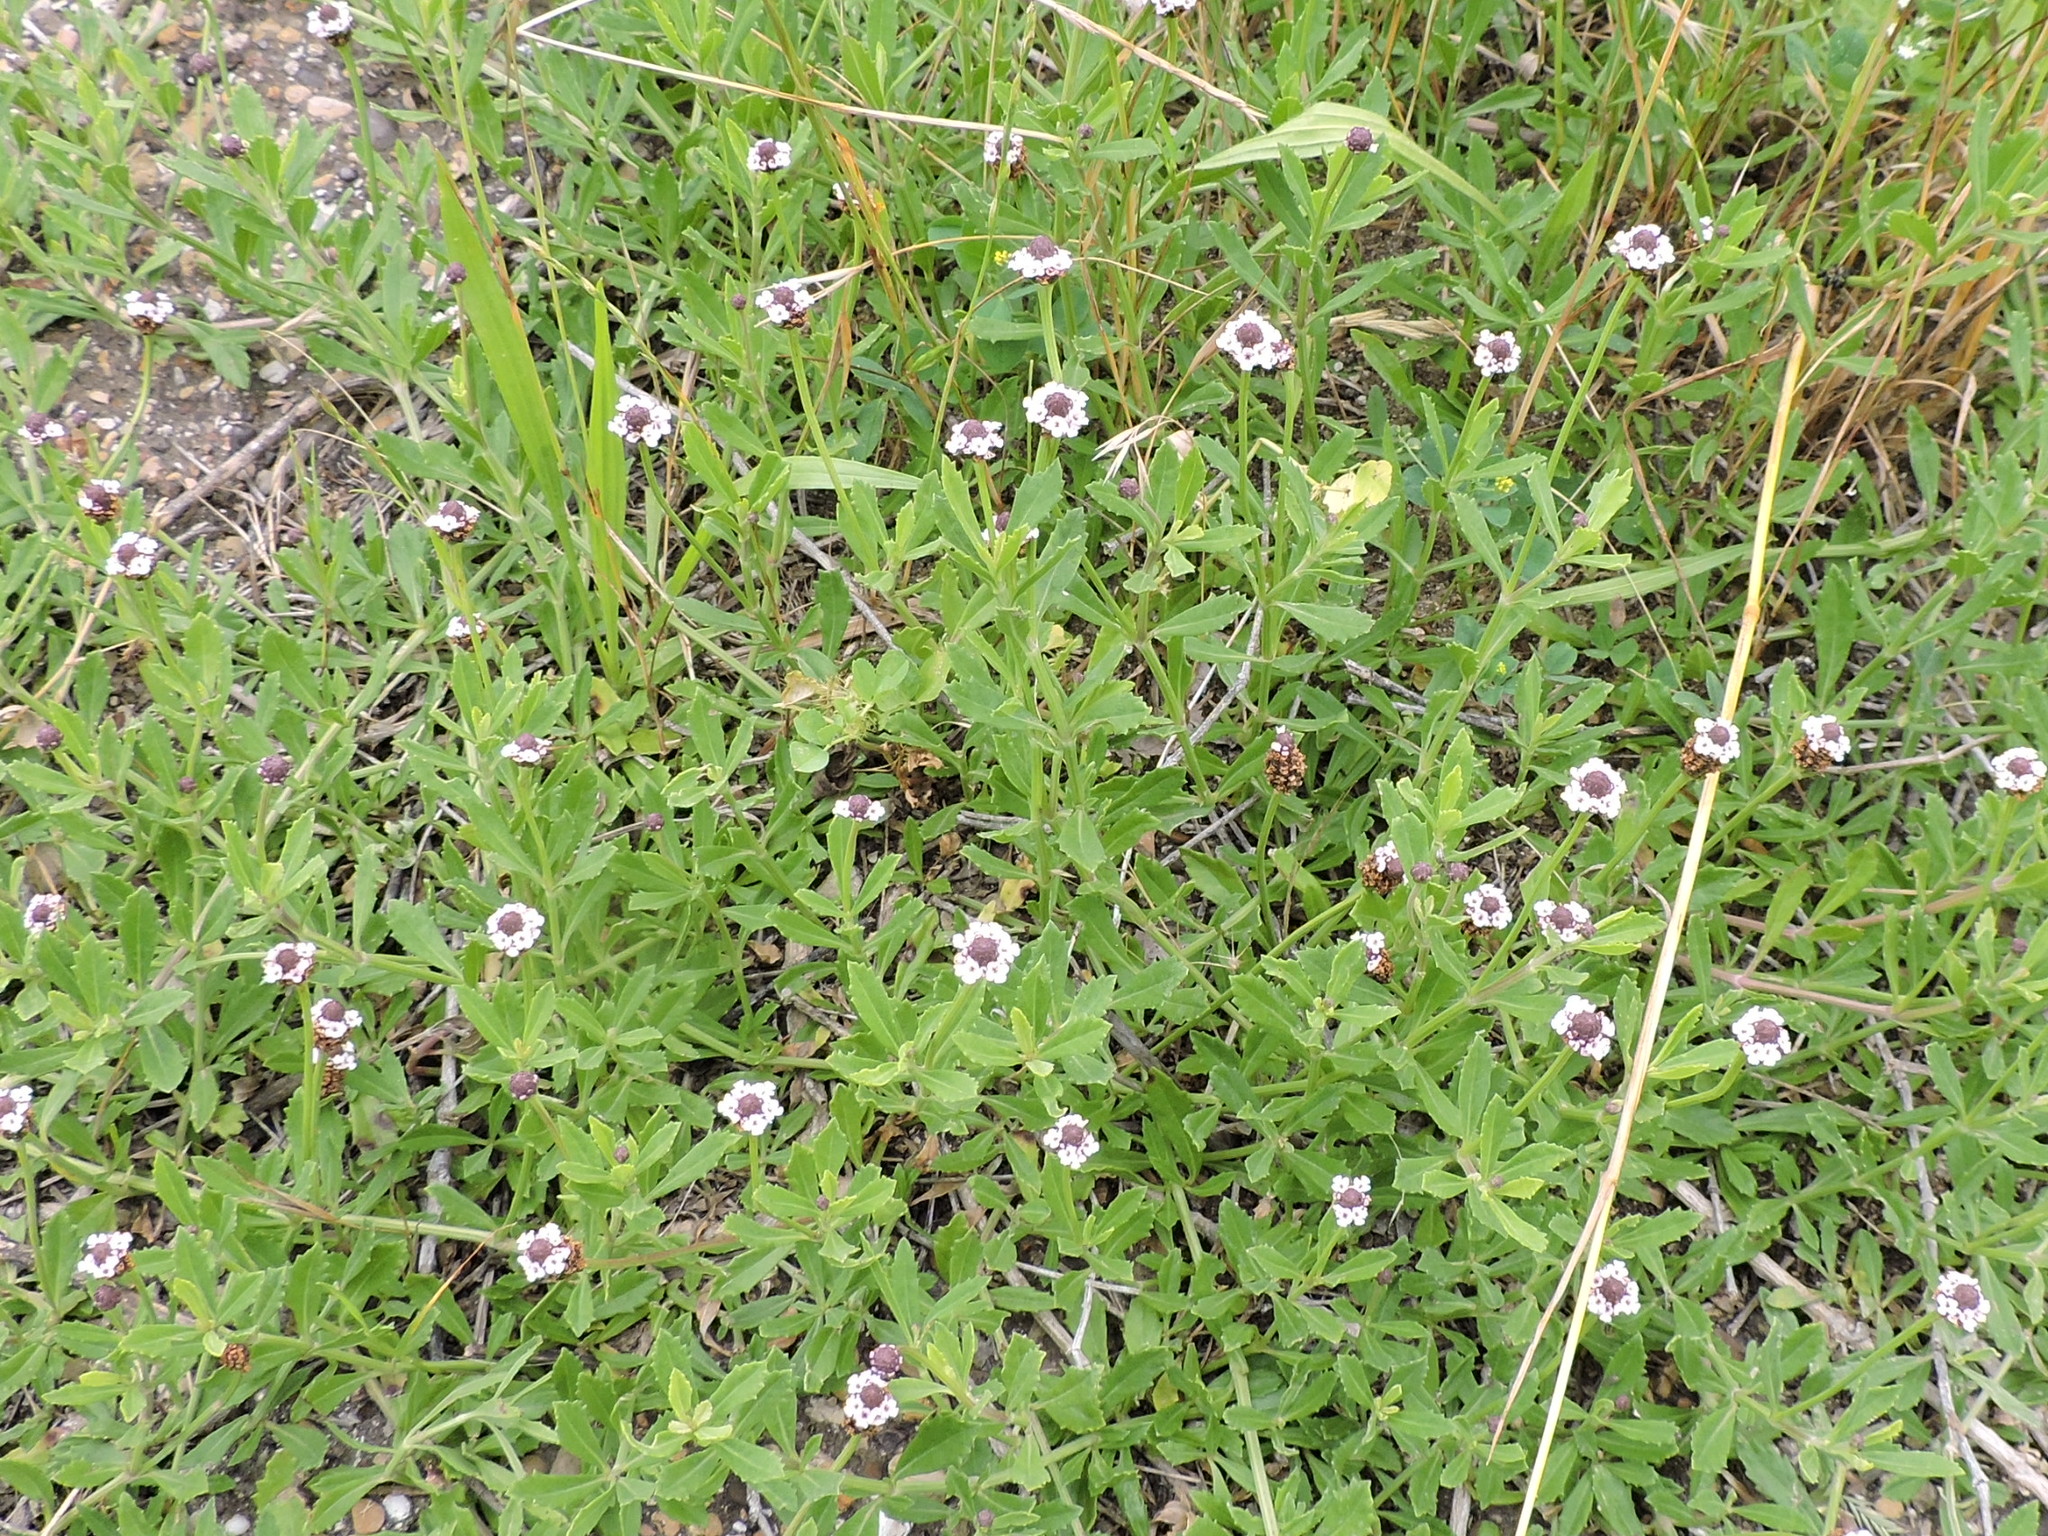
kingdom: Plantae
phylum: Tracheophyta
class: Magnoliopsida
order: Lamiales
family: Verbenaceae
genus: Phyla
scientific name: Phyla nodiflora
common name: Frogfruit
